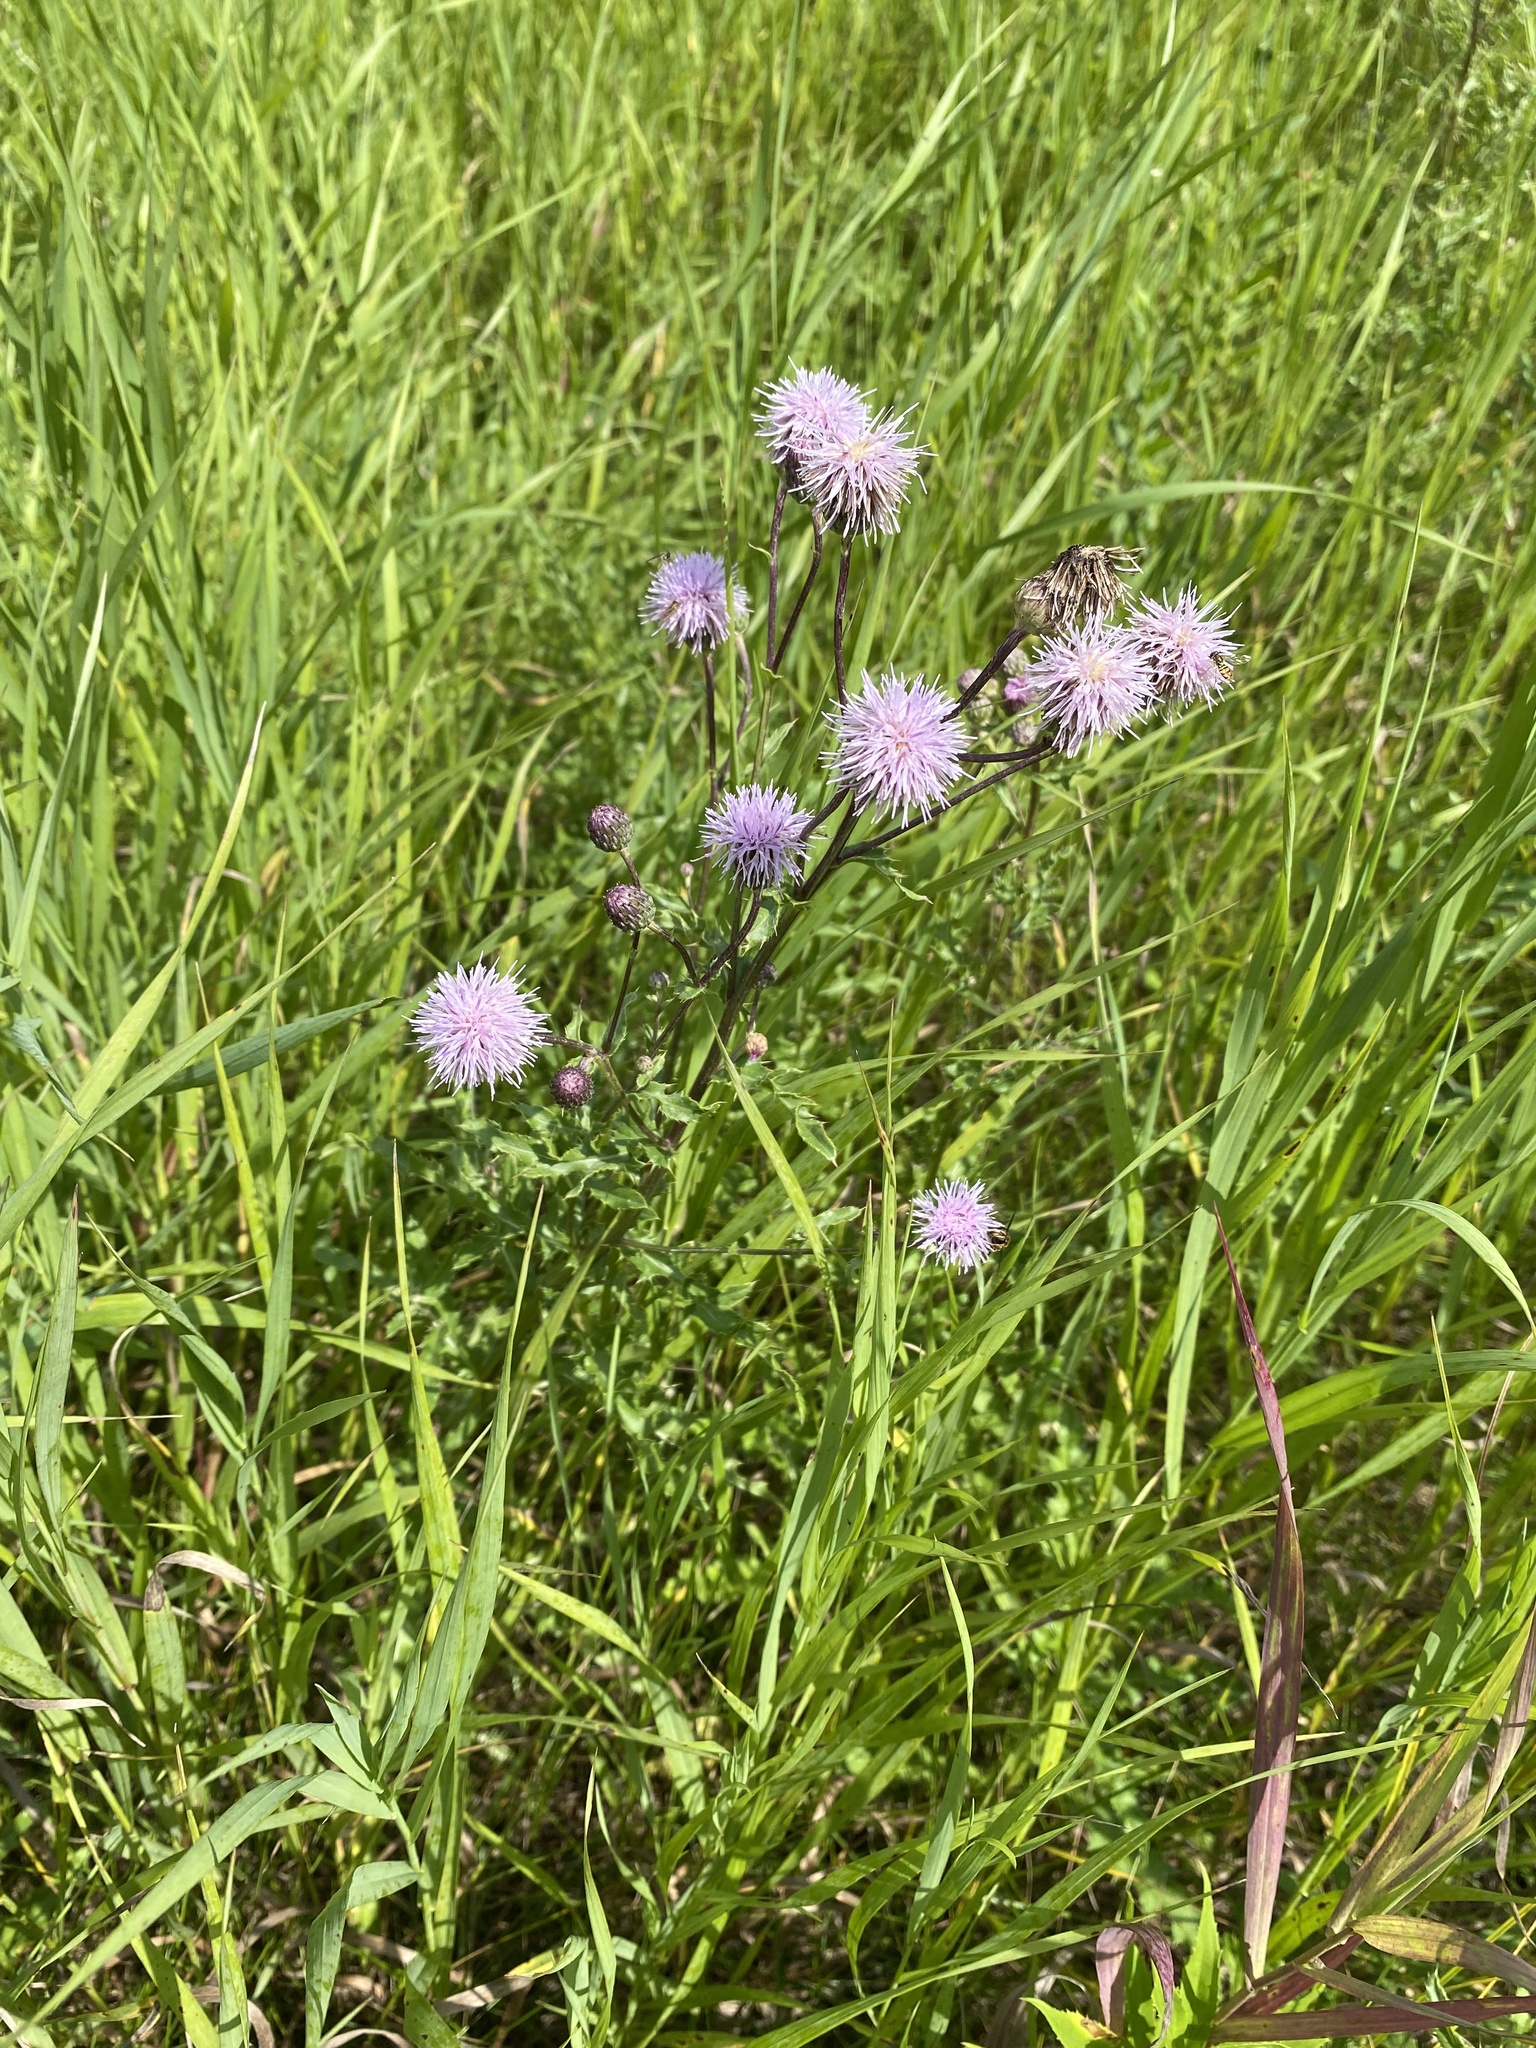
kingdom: Plantae
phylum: Tracheophyta
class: Magnoliopsida
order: Asterales
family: Asteraceae
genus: Cirsium
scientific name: Cirsium arvense
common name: Creeping thistle
